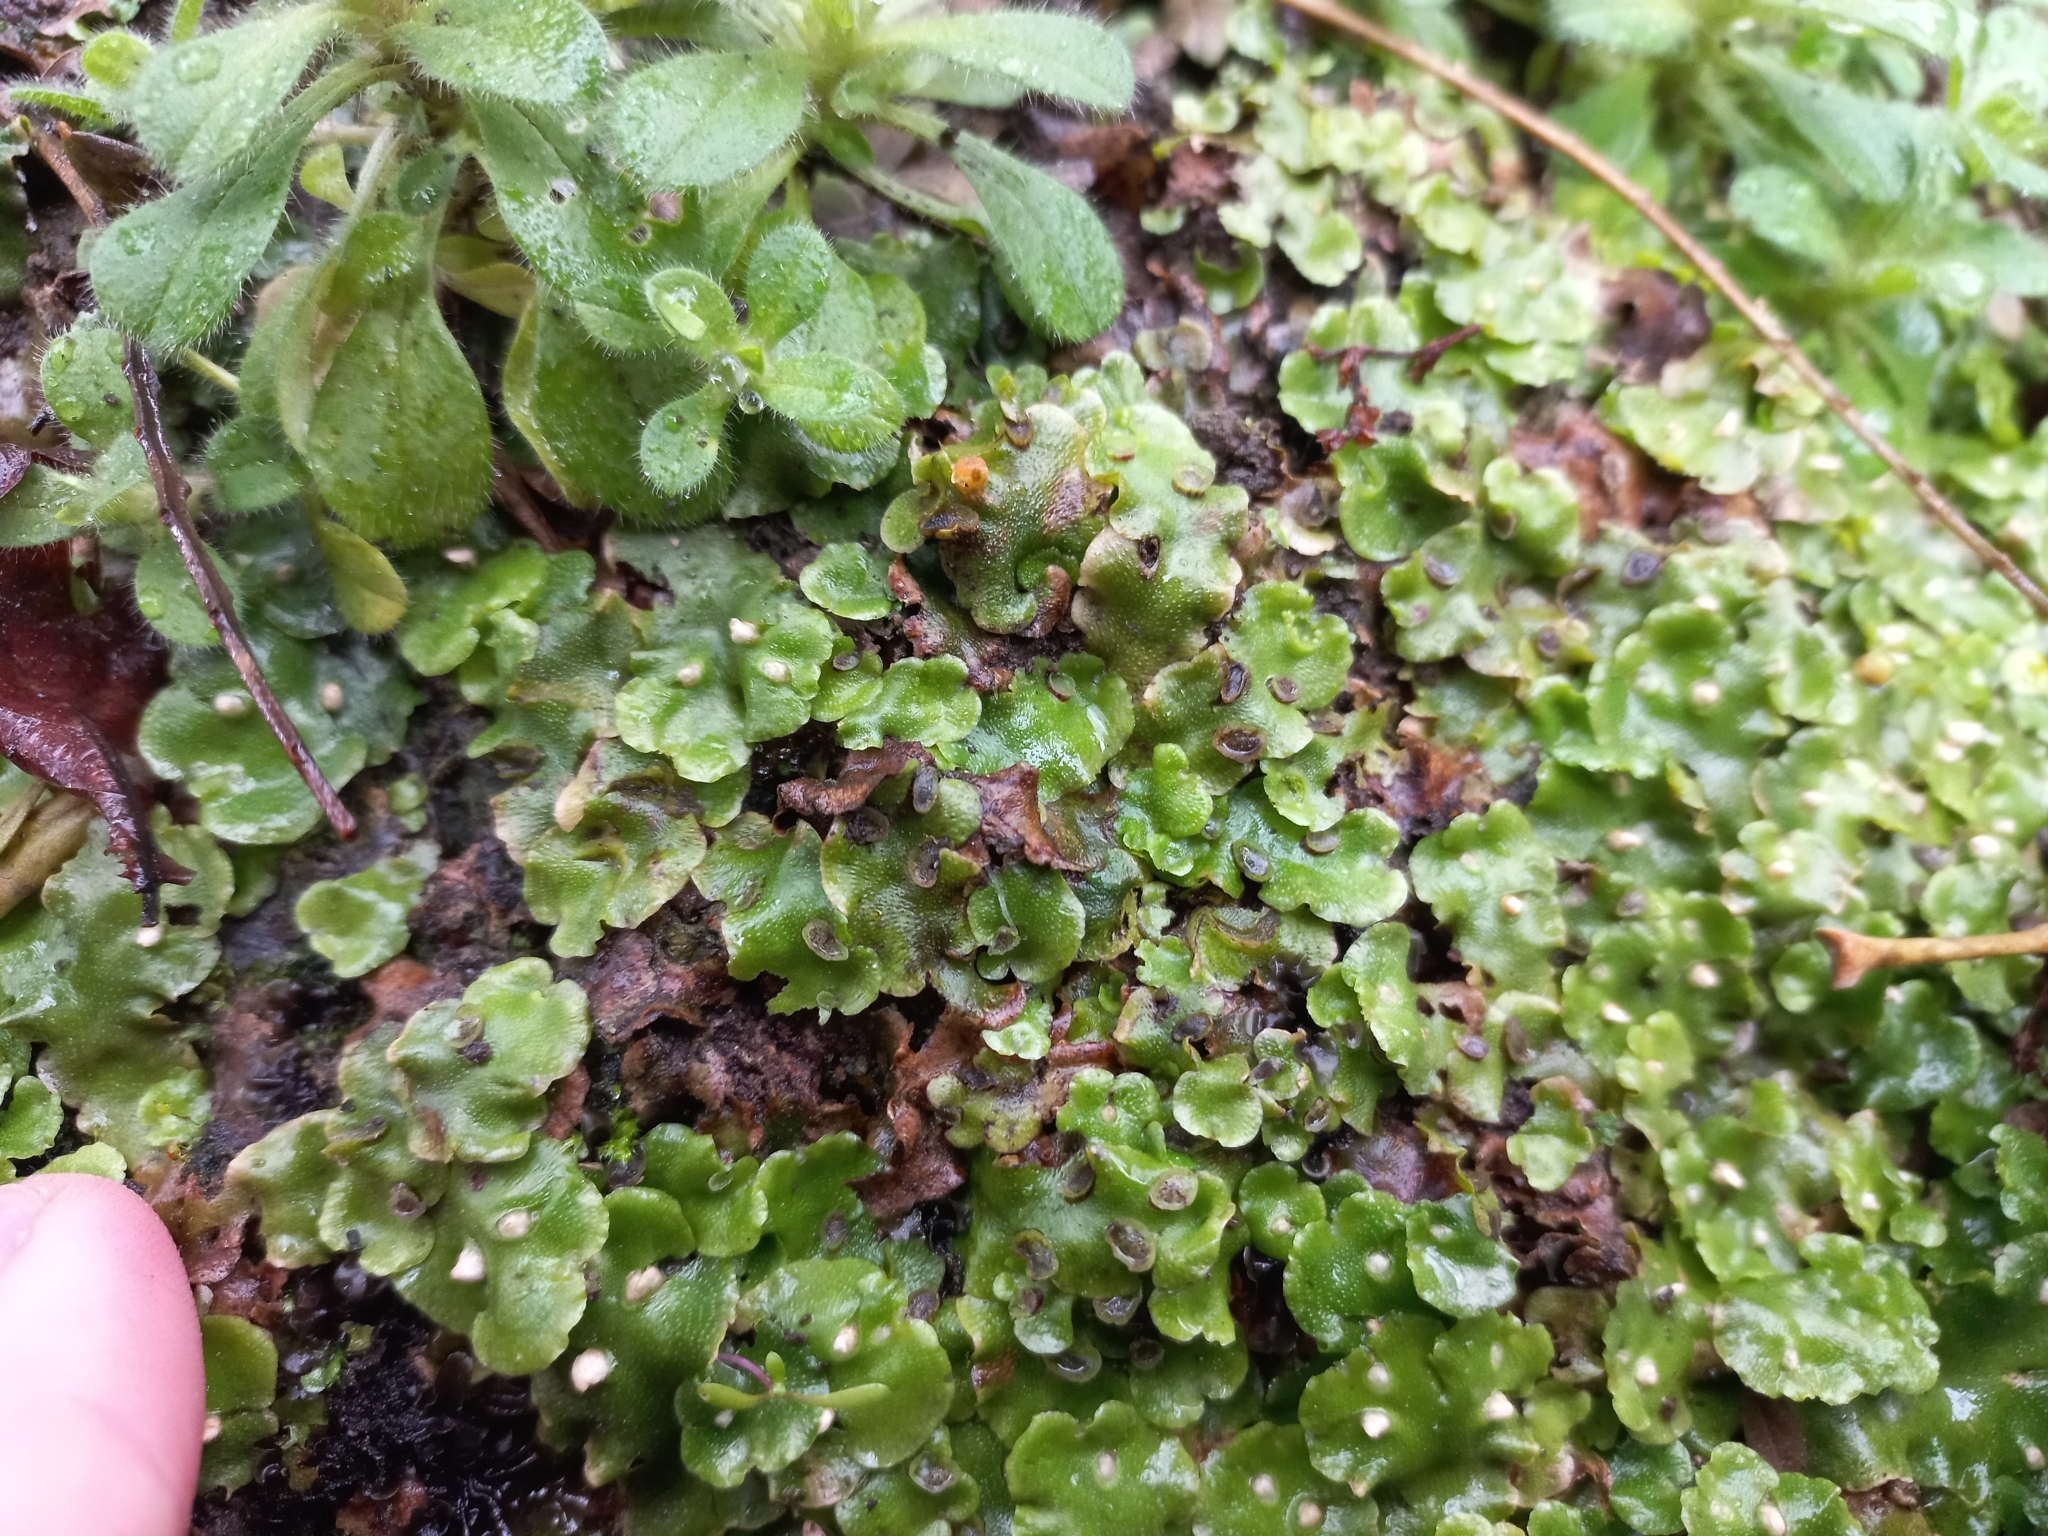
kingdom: Plantae
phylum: Marchantiophyta
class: Marchantiopsida
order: Lunulariales
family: Lunulariaceae
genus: Lunularia
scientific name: Lunularia cruciata
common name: Crescent-cup liverwort
